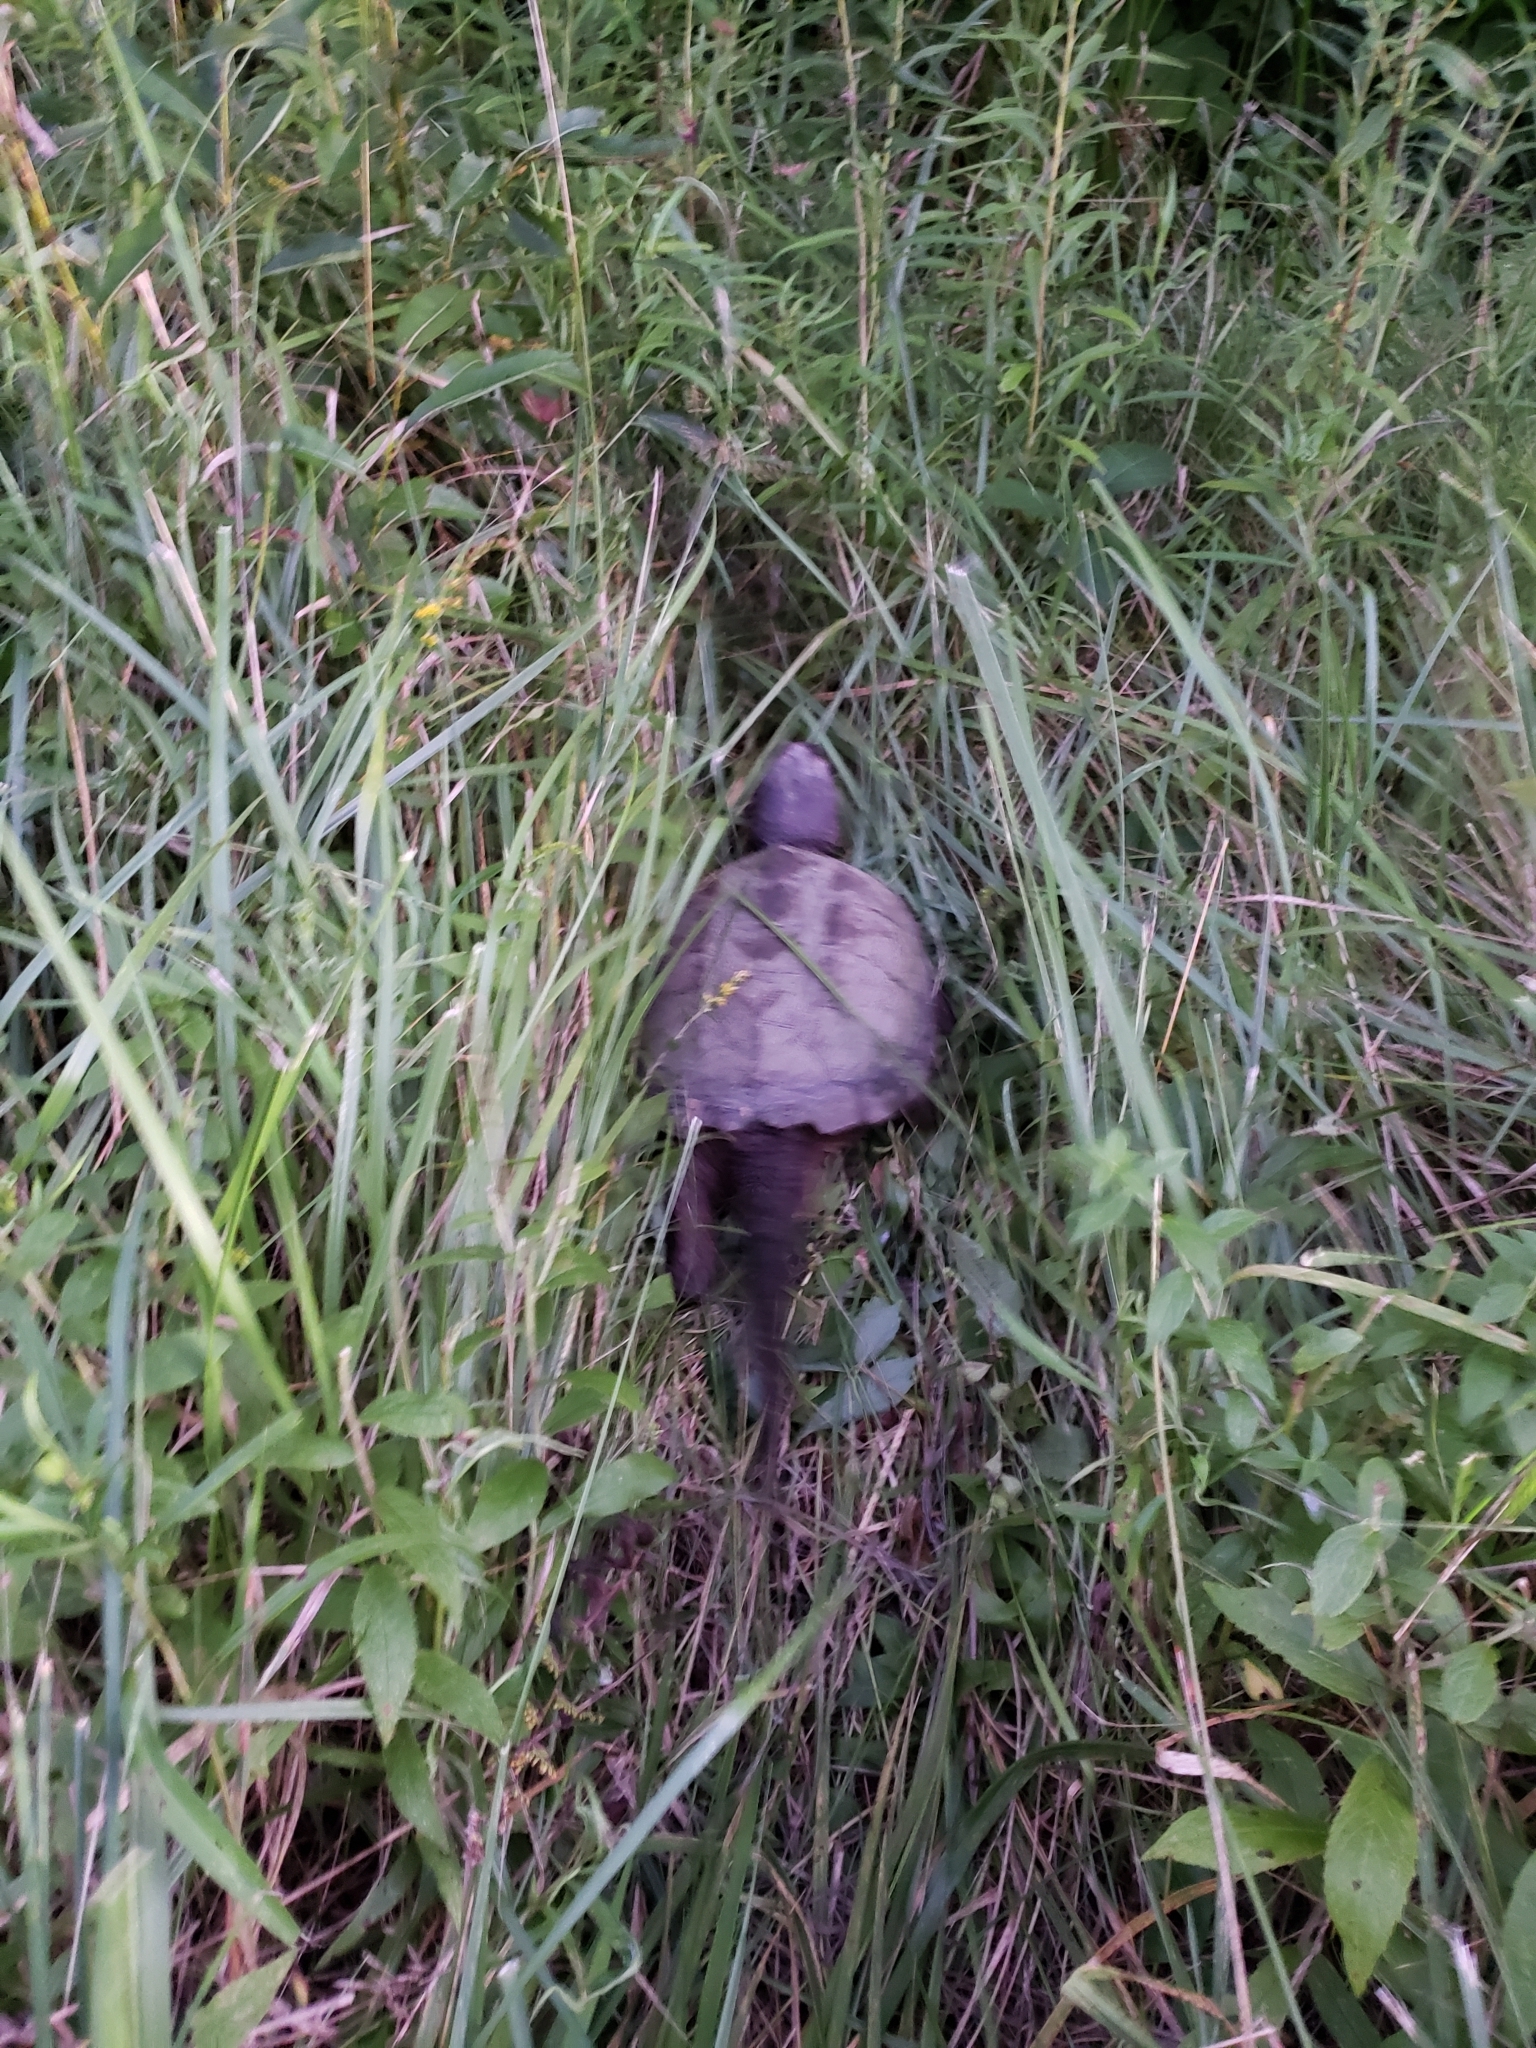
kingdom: Animalia
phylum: Chordata
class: Testudines
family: Chelydridae
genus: Chelydra
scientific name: Chelydra serpentina
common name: Common snapping turtle
